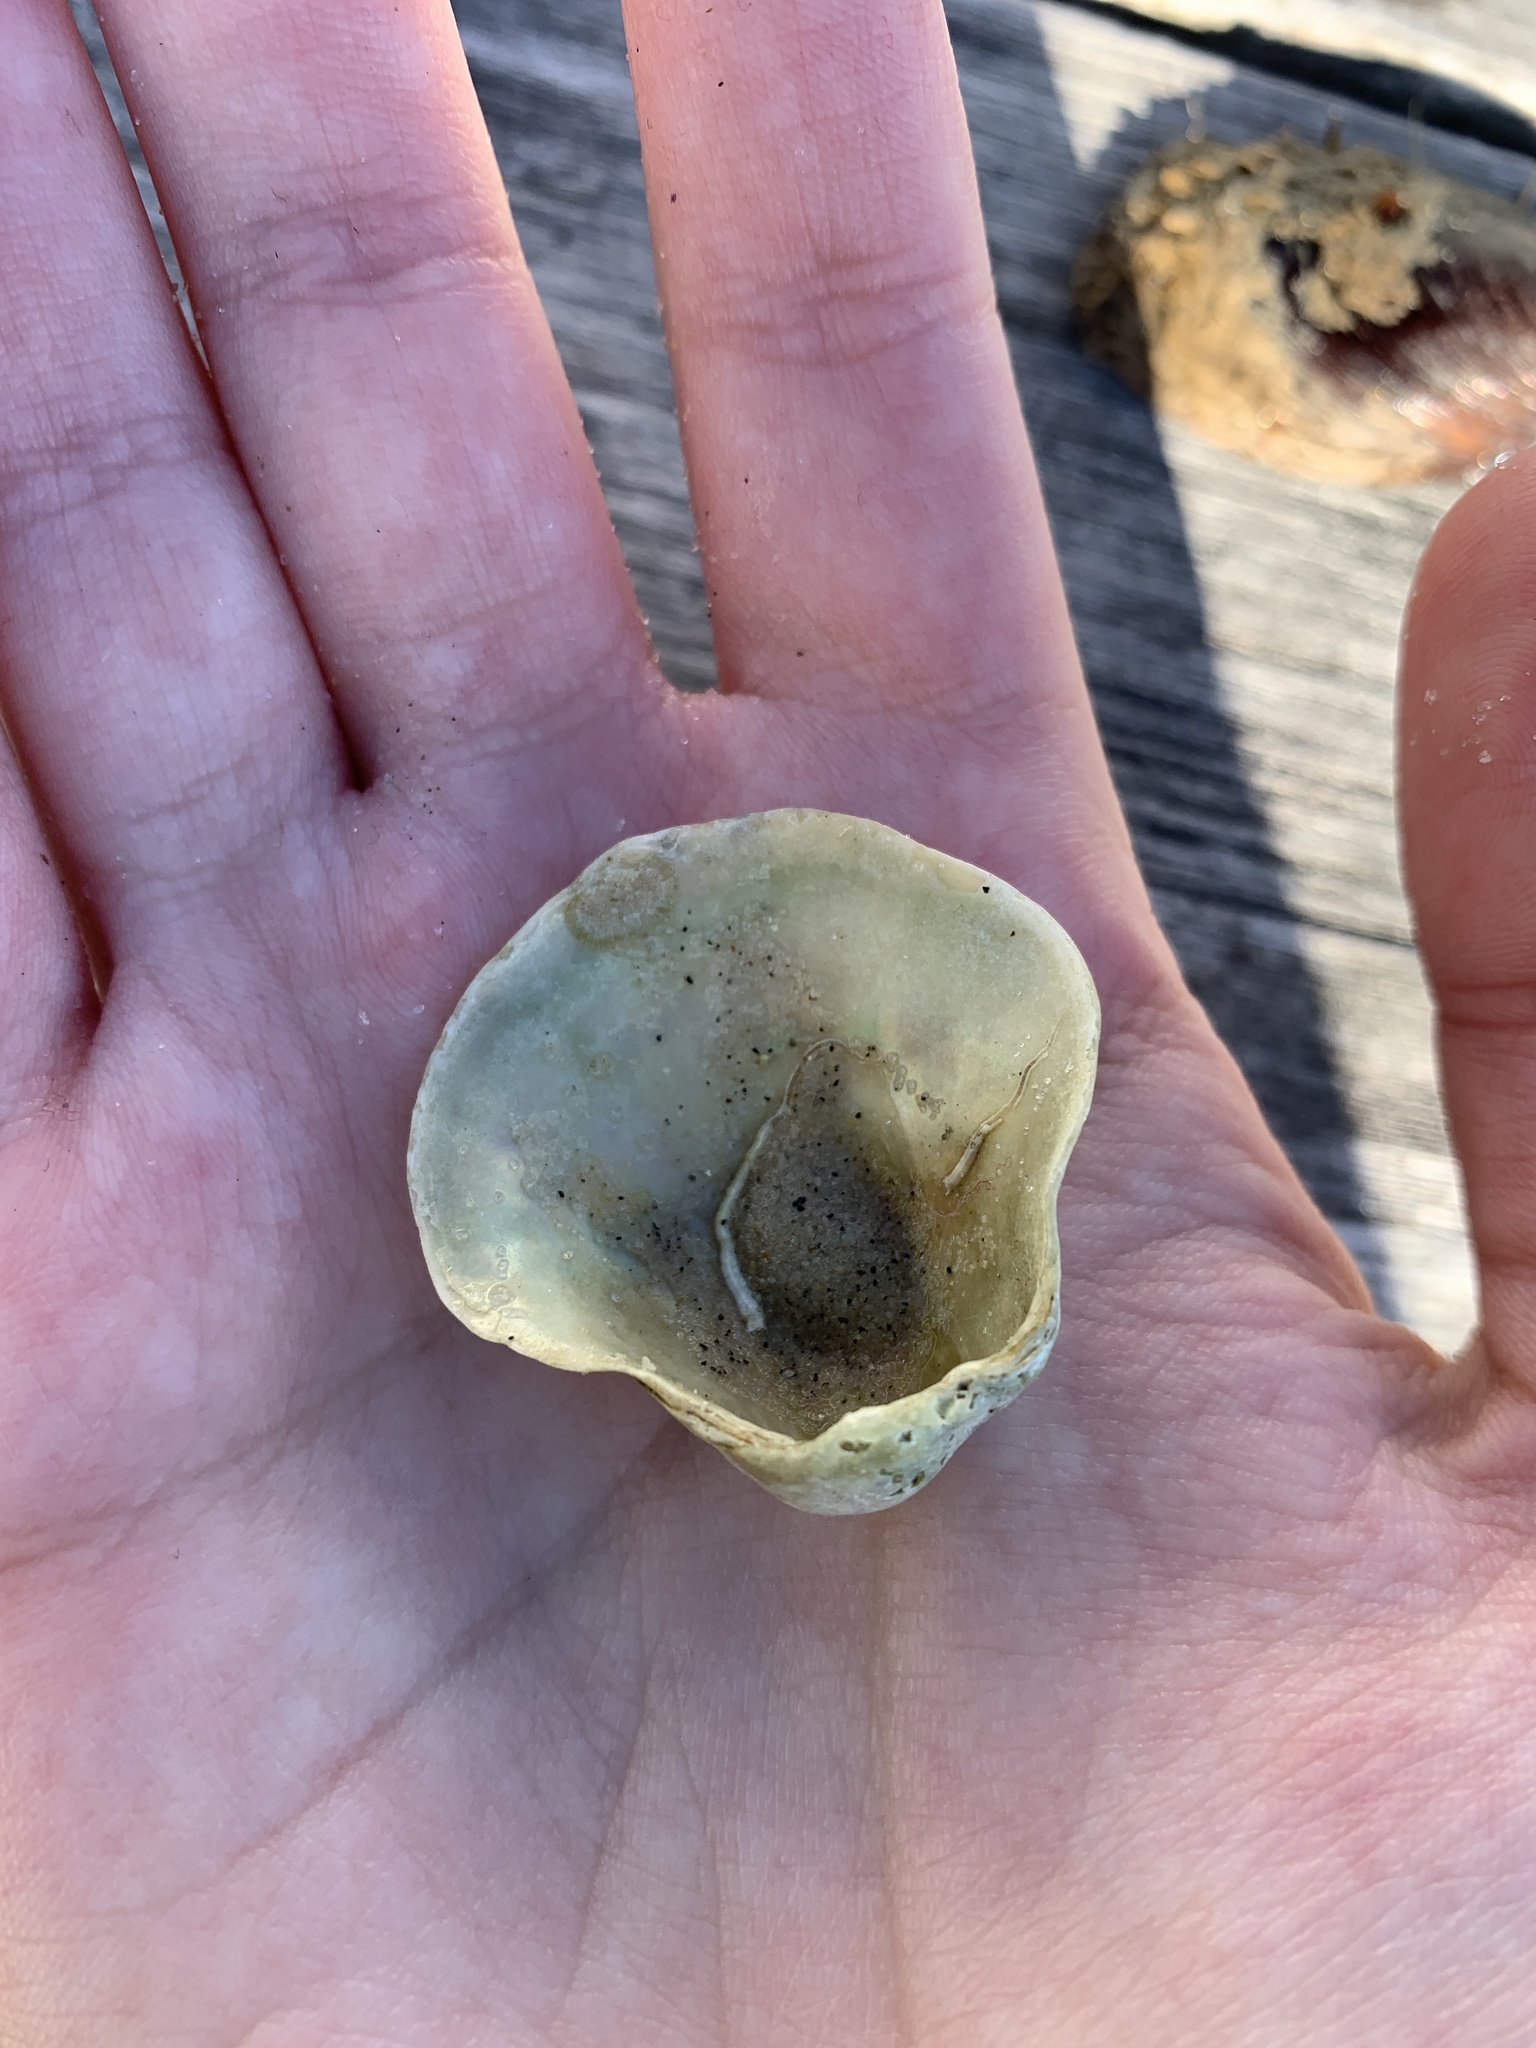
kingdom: Animalia
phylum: Mollusca
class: Bivalvia
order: Pectinida
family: Anomiidae
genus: Anomia
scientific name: Anomia simplex
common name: Common jingle shell
